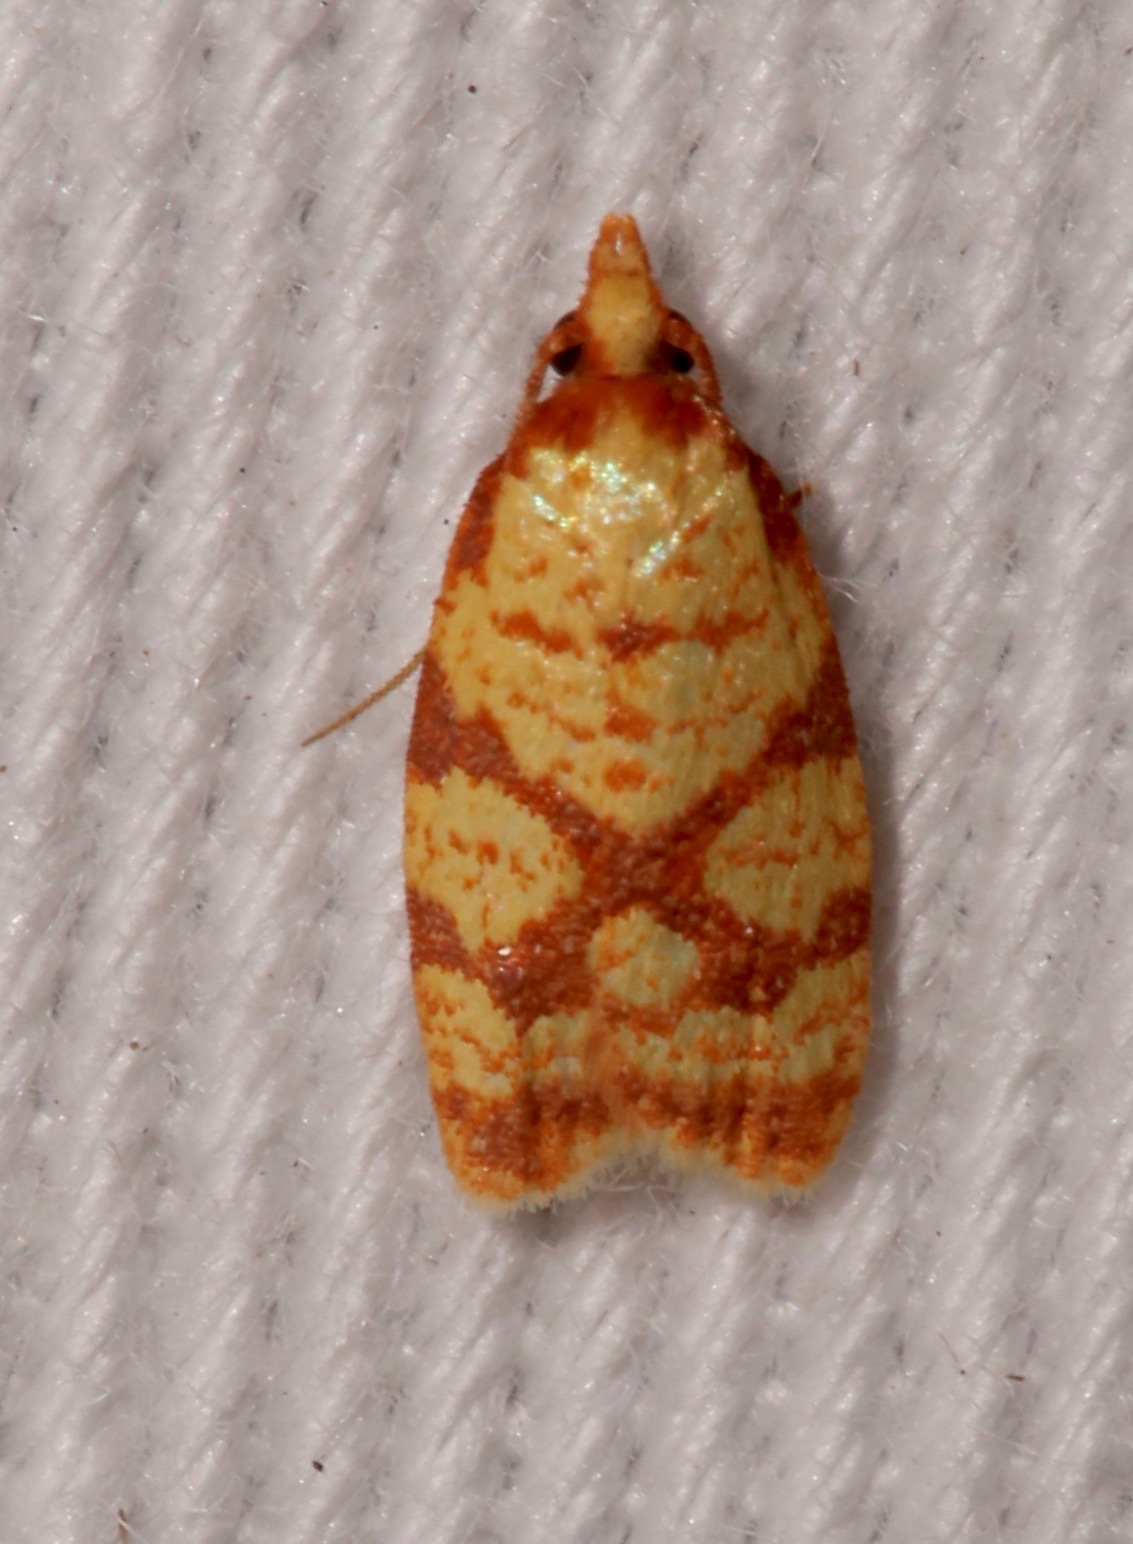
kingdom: Animalia
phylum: Arthropoda
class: Insecta
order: Lepidoptera
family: Tortricidae
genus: Sparganothis
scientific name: Sparganothis sulfureana
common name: Sparganothis fruitworm moth
